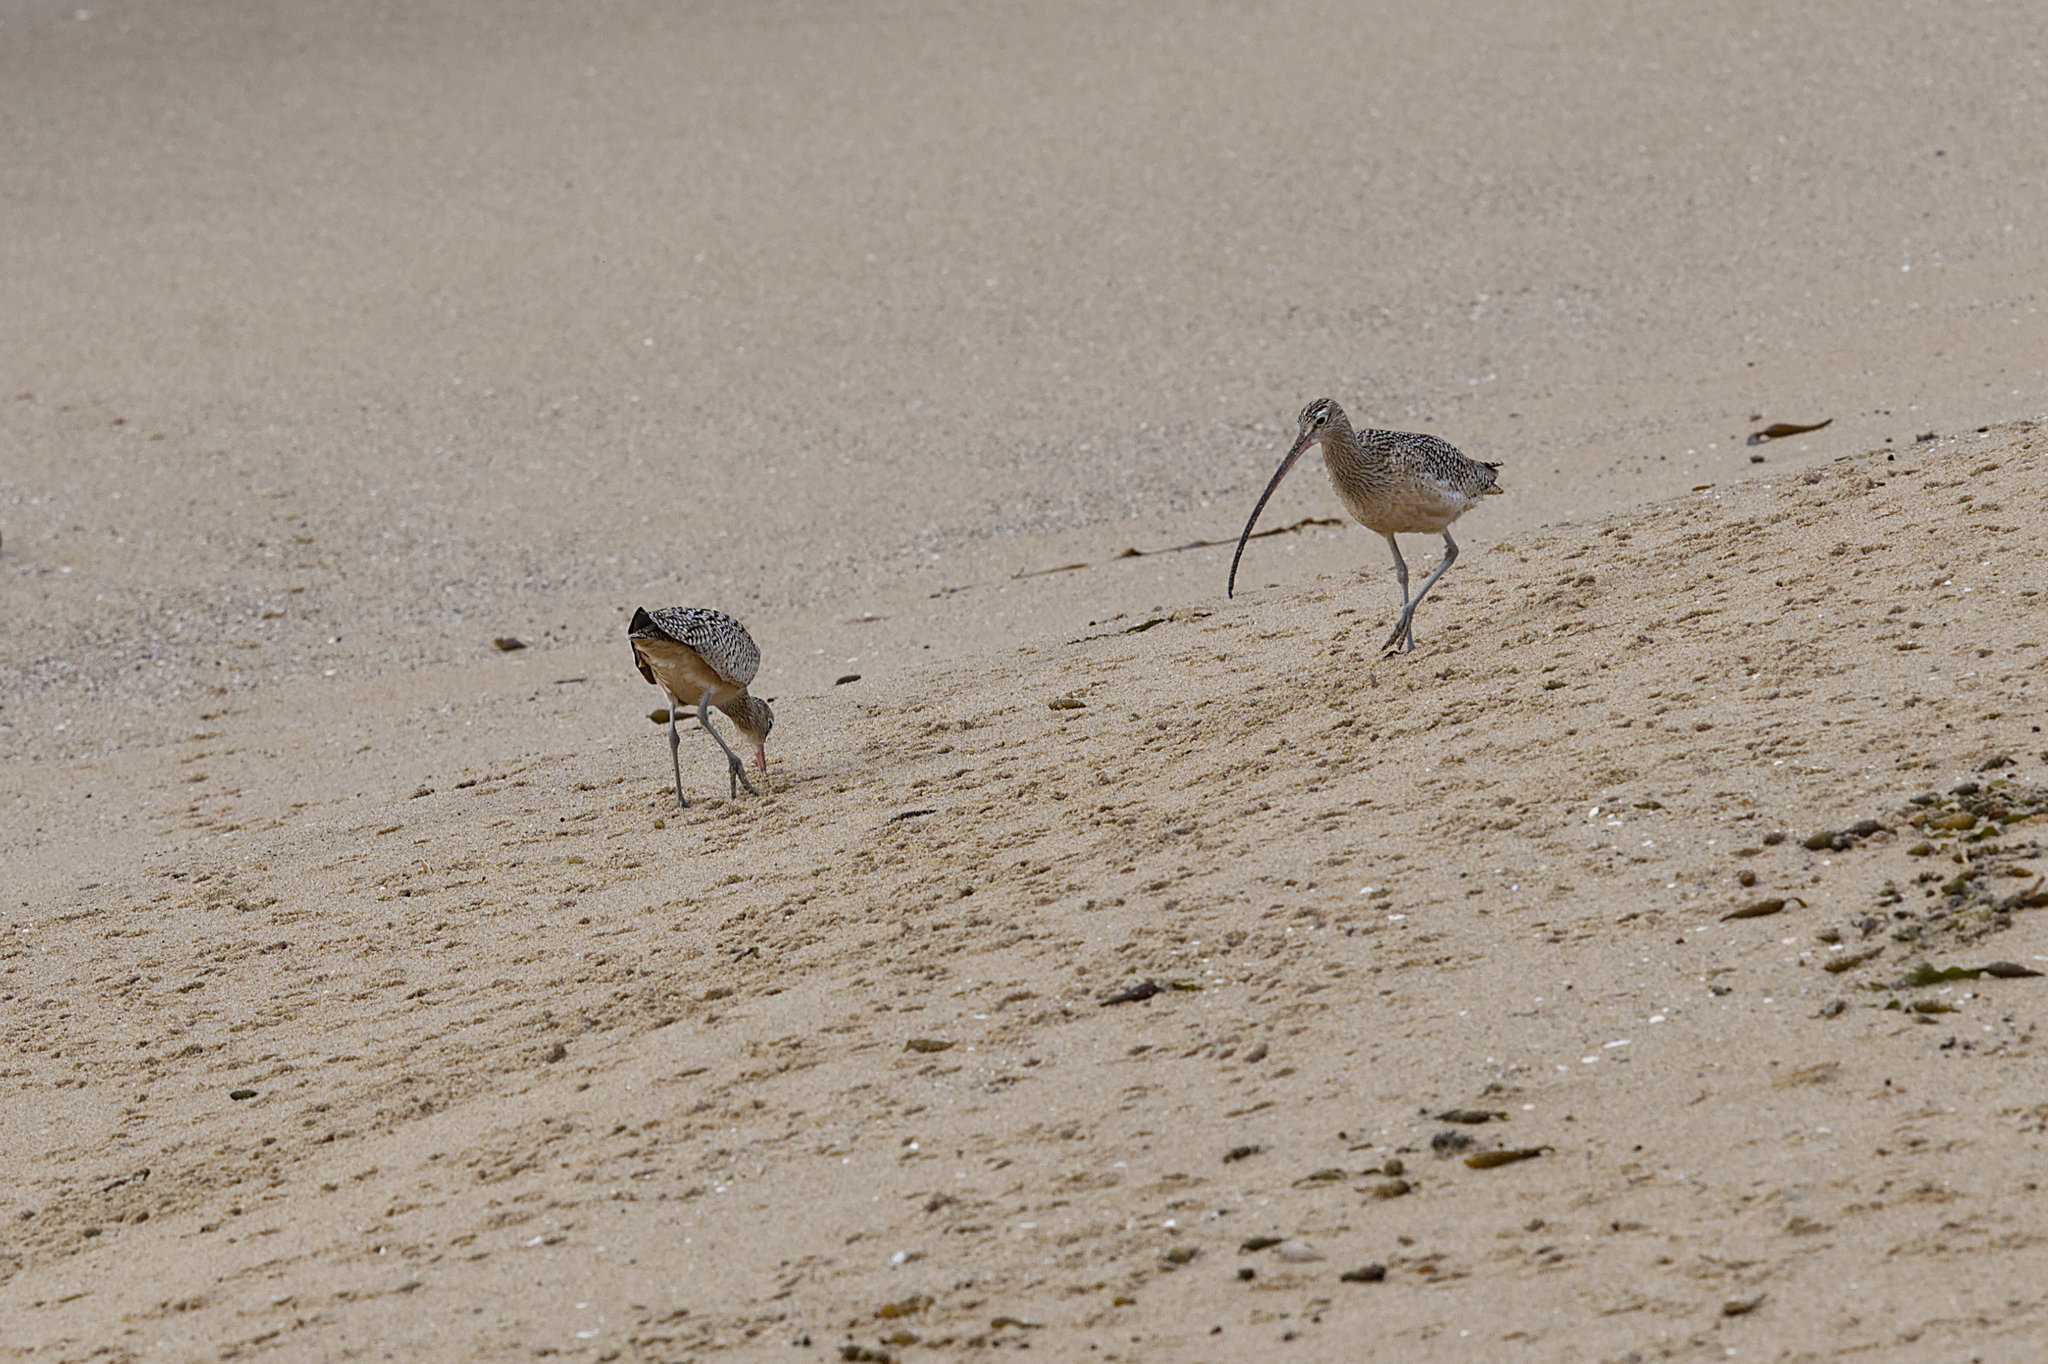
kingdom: Animalia
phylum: Chordata
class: Aves
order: Charadriiformes
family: Scolopacidae
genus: Numenius
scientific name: Numenius americanus
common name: Long-billed curlew
